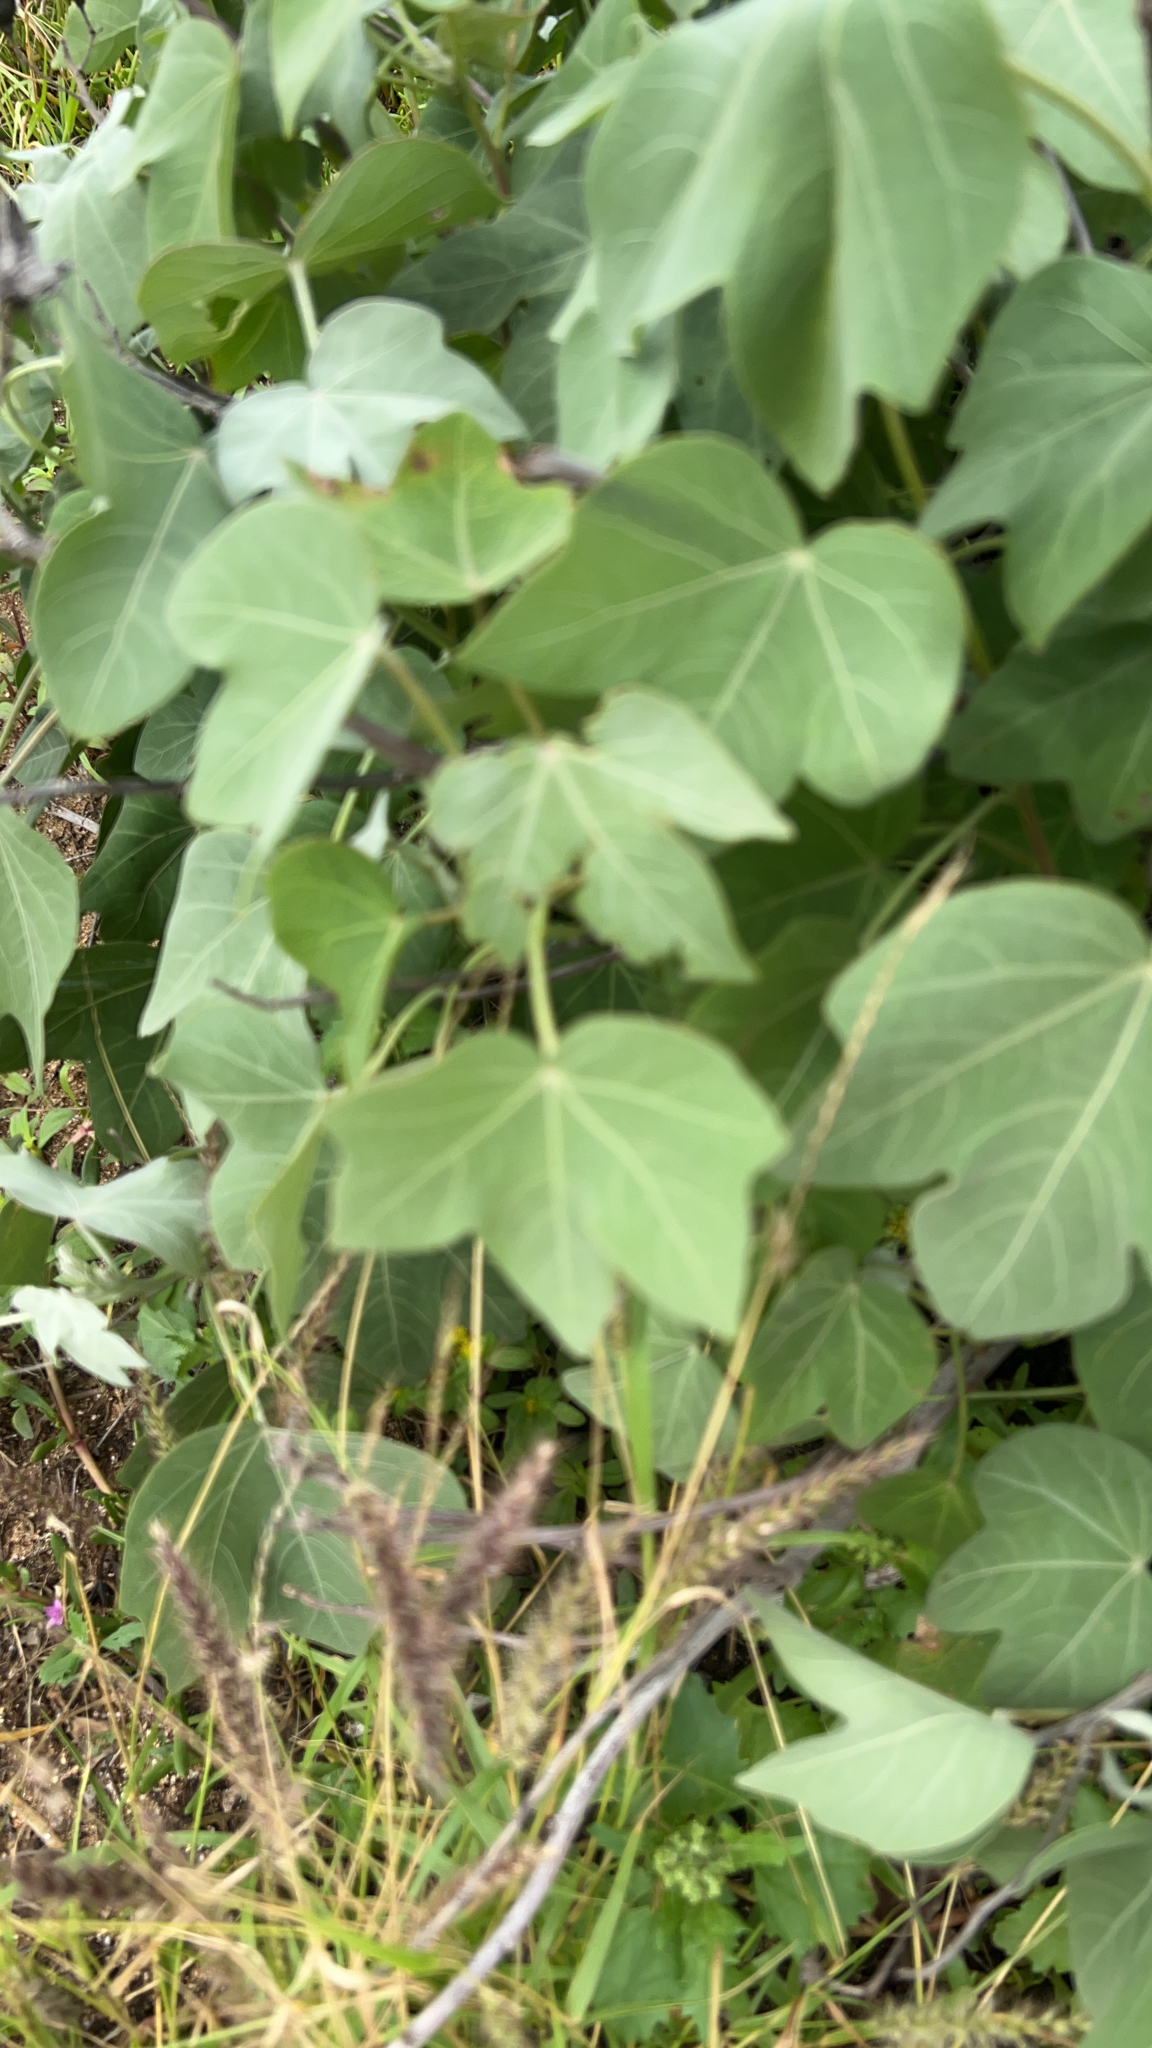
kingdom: Plantae
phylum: Tracheophyta
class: Magnoliopsida
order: Malvales
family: Malvaceae
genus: Gossypium
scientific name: Gossypium tomentosum
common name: Hawaiian cotton
